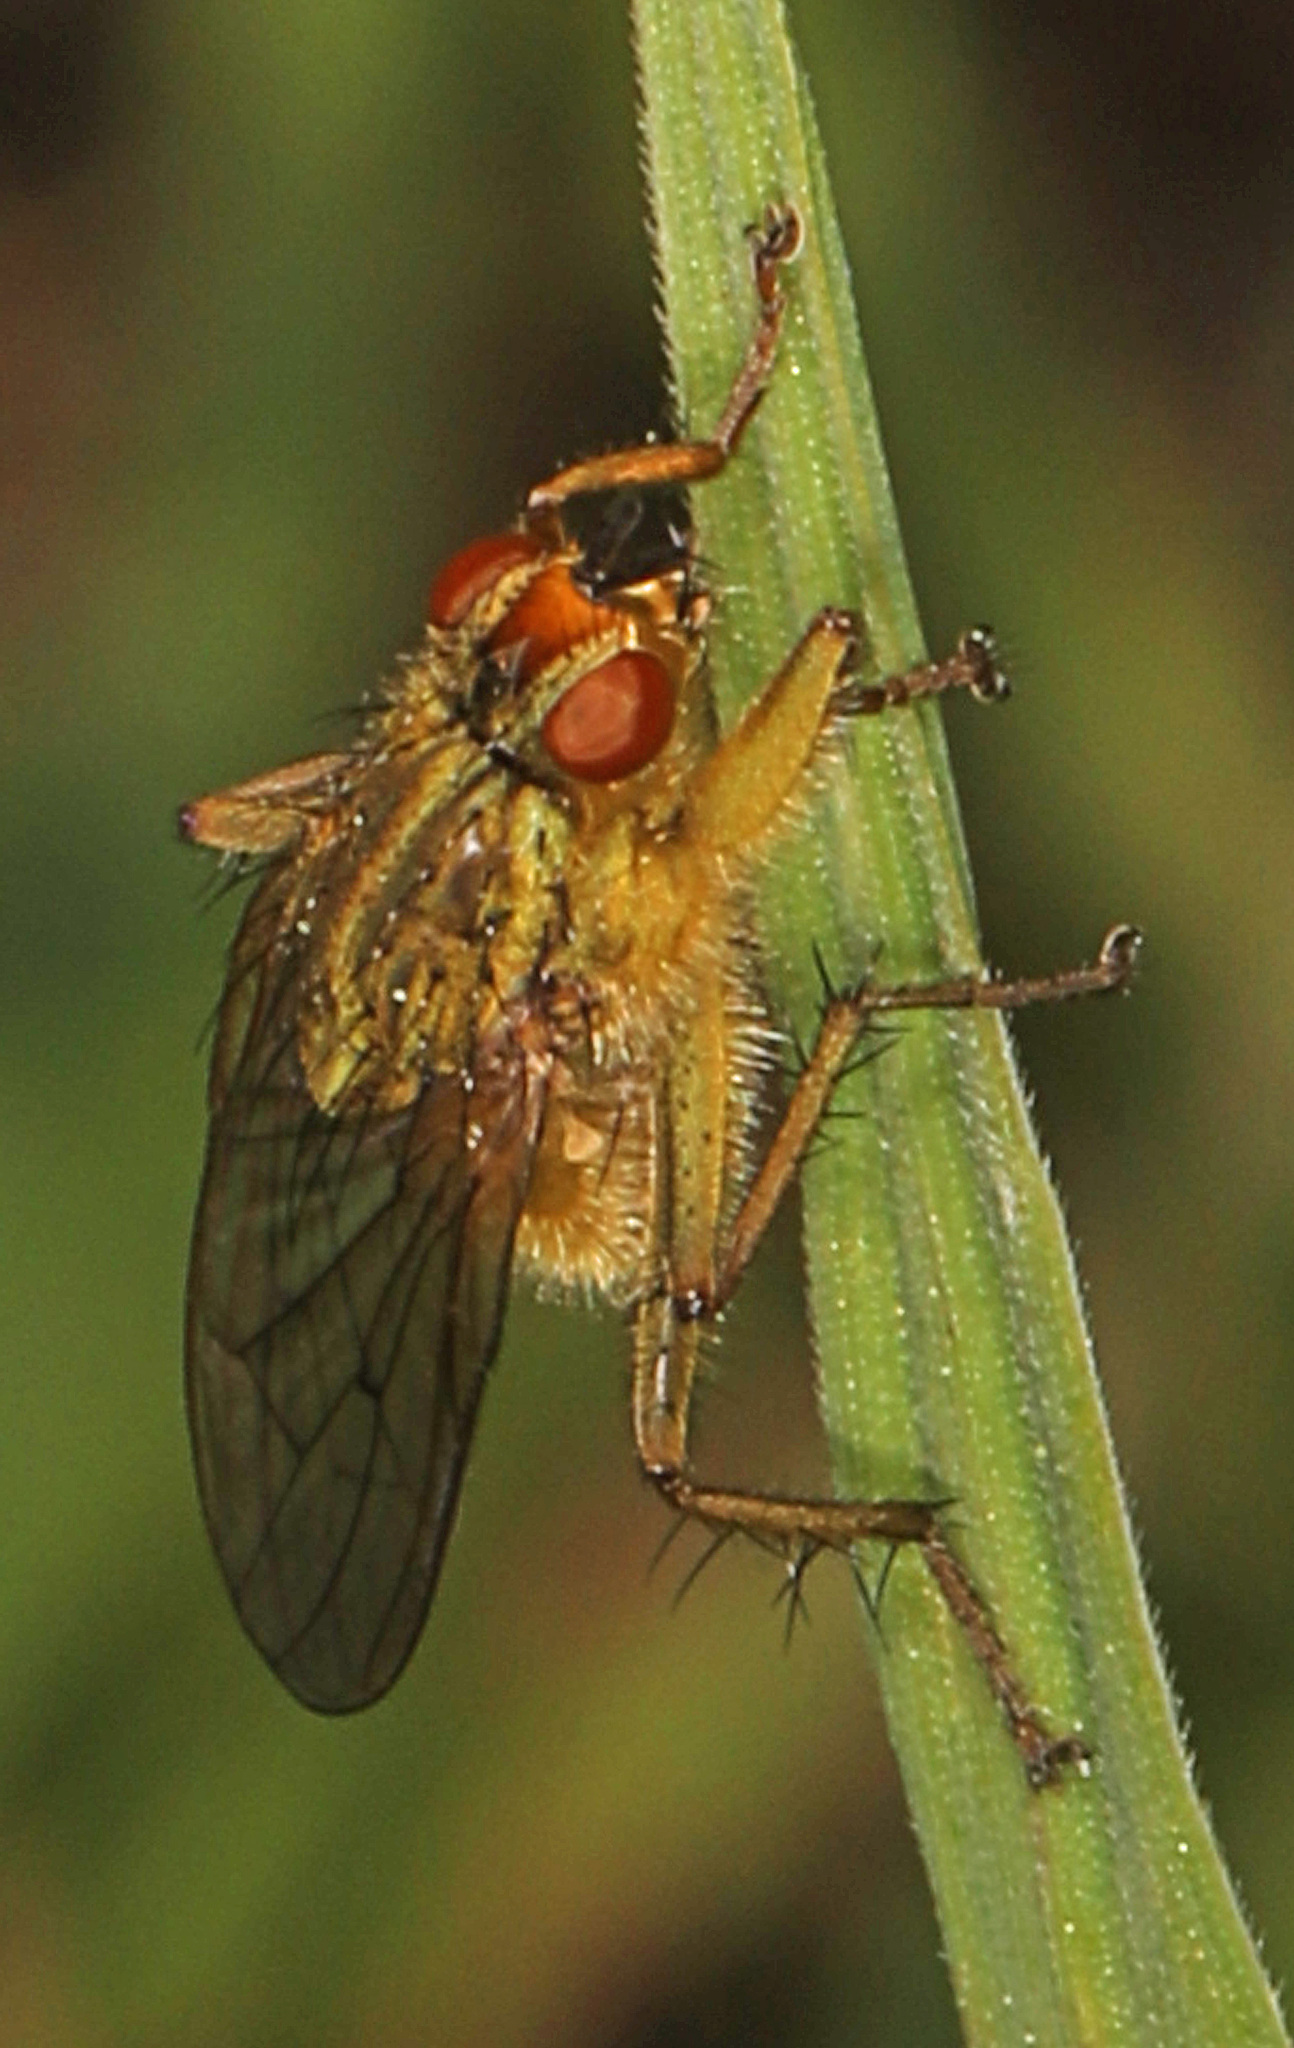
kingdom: Animalia
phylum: Arthropoda
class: Insecta
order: Diptera
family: Scathophagidae
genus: Scathophaga
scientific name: Scathophaga stercoraria
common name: Yellow dung fly
